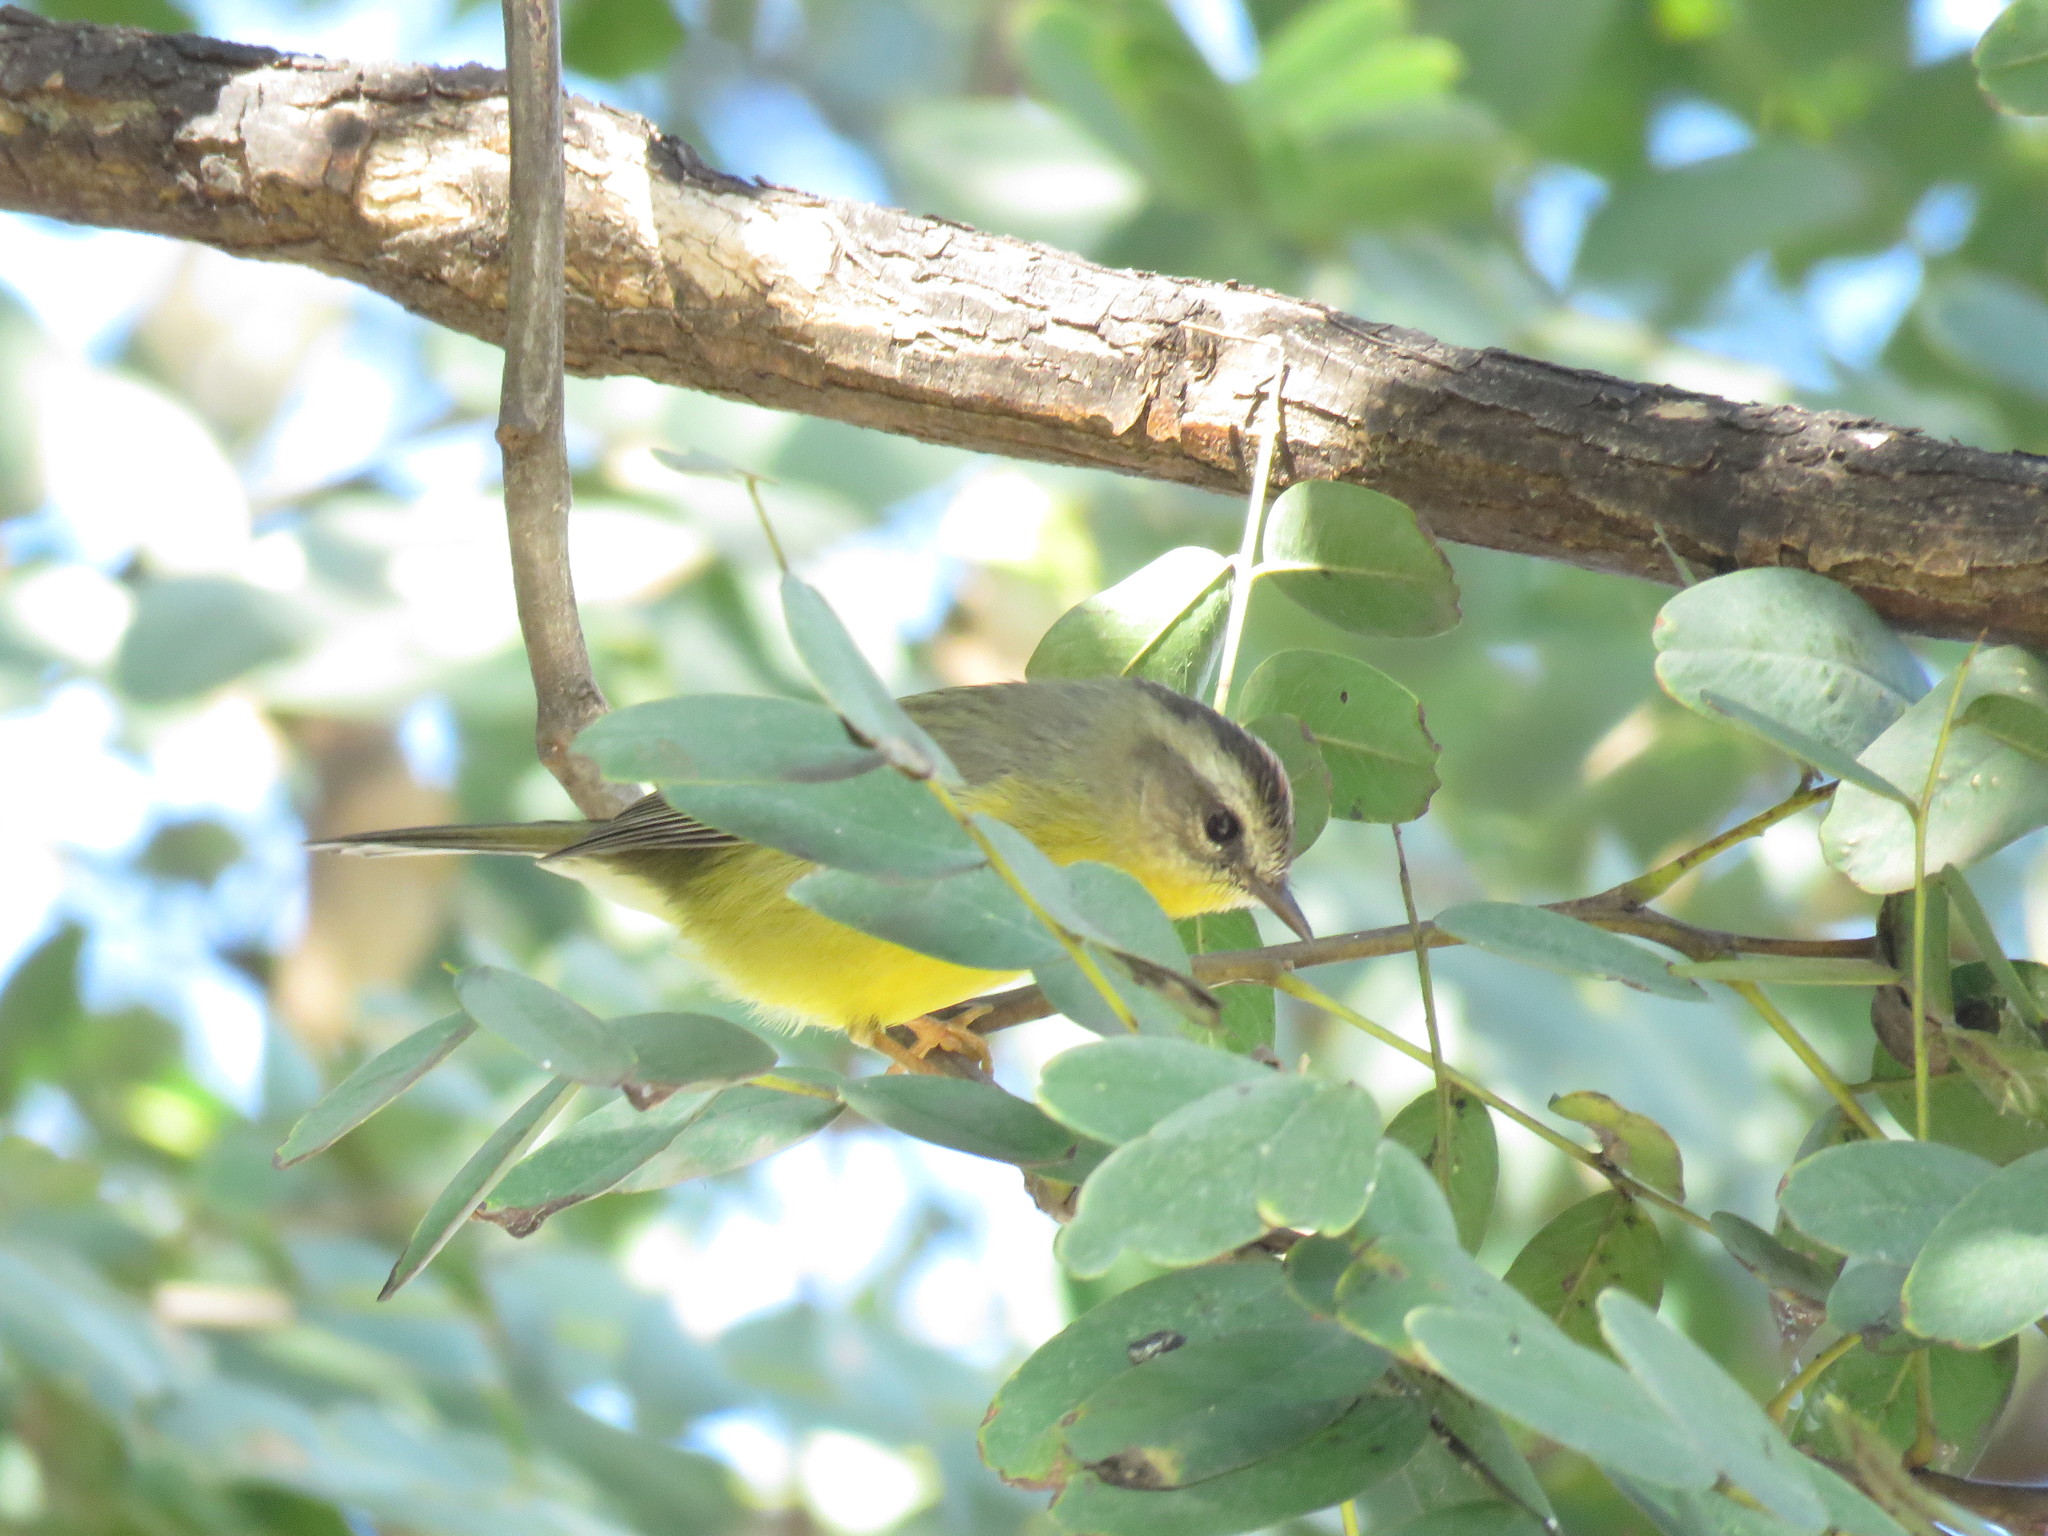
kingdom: Animalia
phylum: Chordata
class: Aves
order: Passeriformes
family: Parulidae
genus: Basileuterus
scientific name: Basileuterus culicivorus
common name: Golden-crowned warbler
